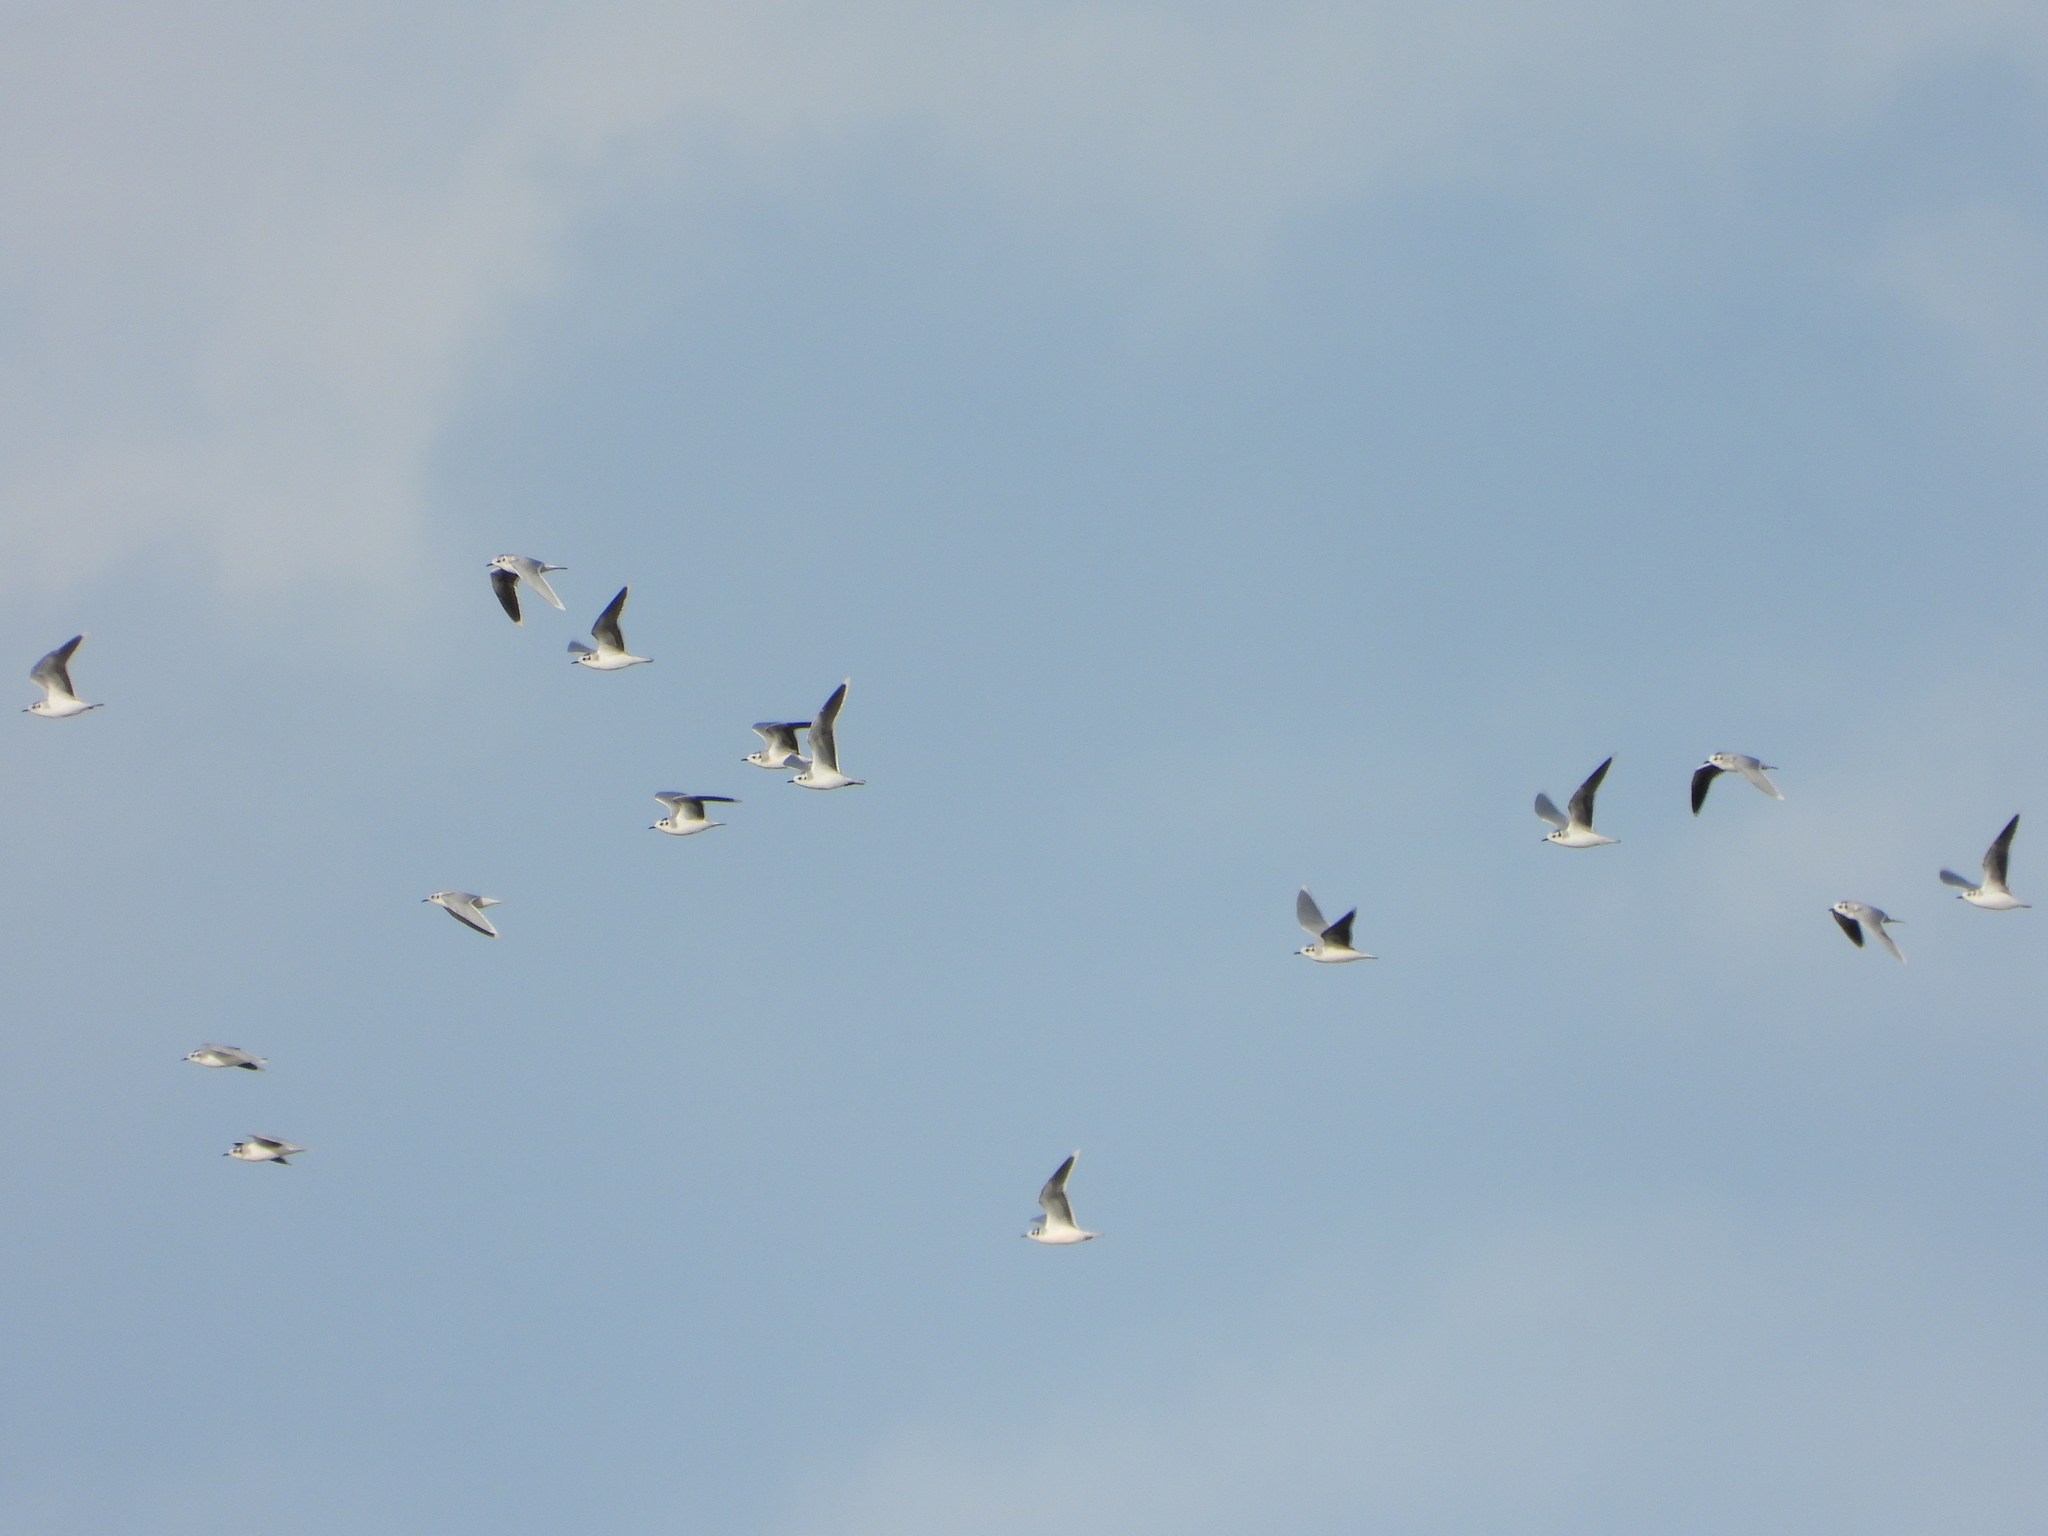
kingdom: Animalia
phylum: Chordata
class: Aves
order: Charadriiformes
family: Laridae
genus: Chroicocephalus
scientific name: Chroicocephalus ridibundus
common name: Black-headed gull
